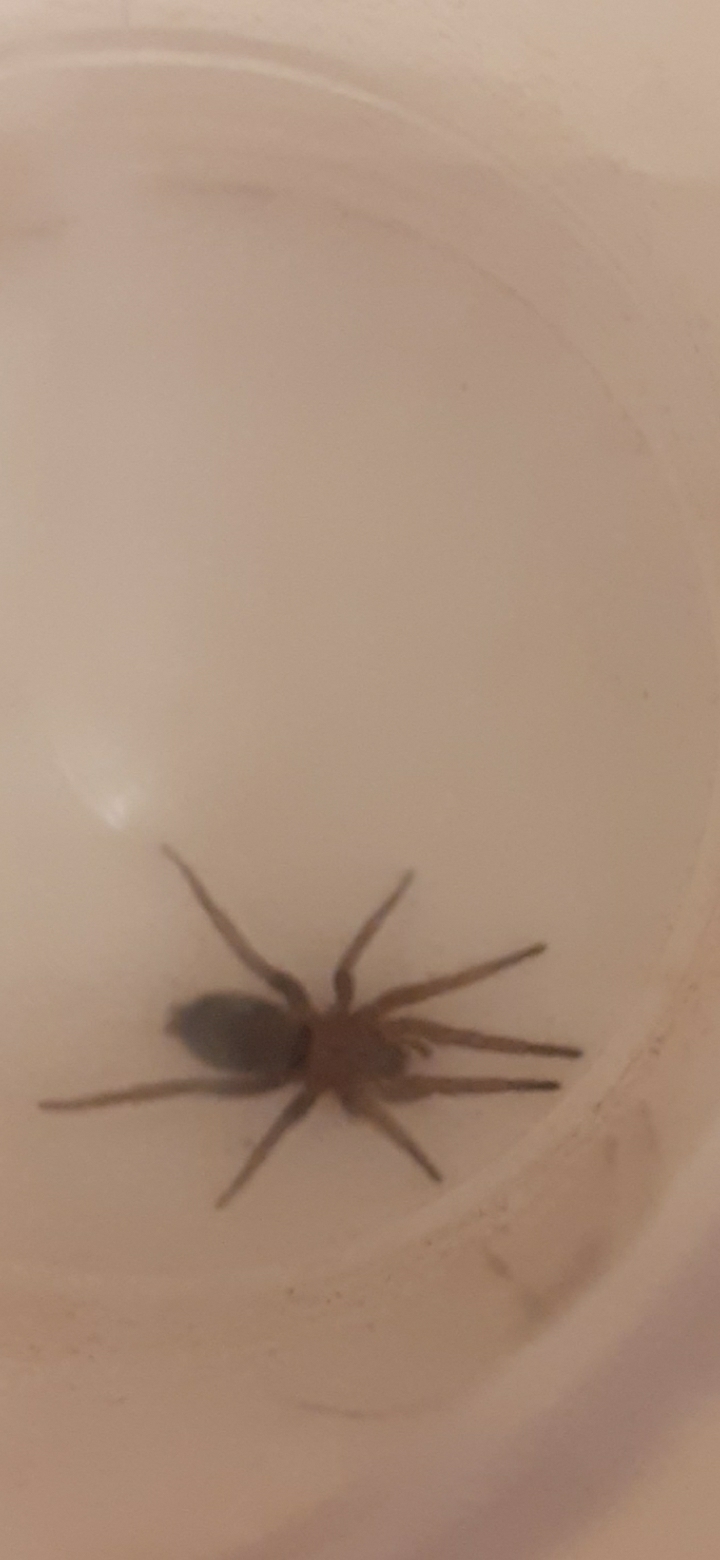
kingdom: Animalia
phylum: Arthropoda
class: Arachnida
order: Araneae
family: Gnaphosidae
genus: Scotophaeus
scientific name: Scotophaeus blackwalli
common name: Mouse spider
